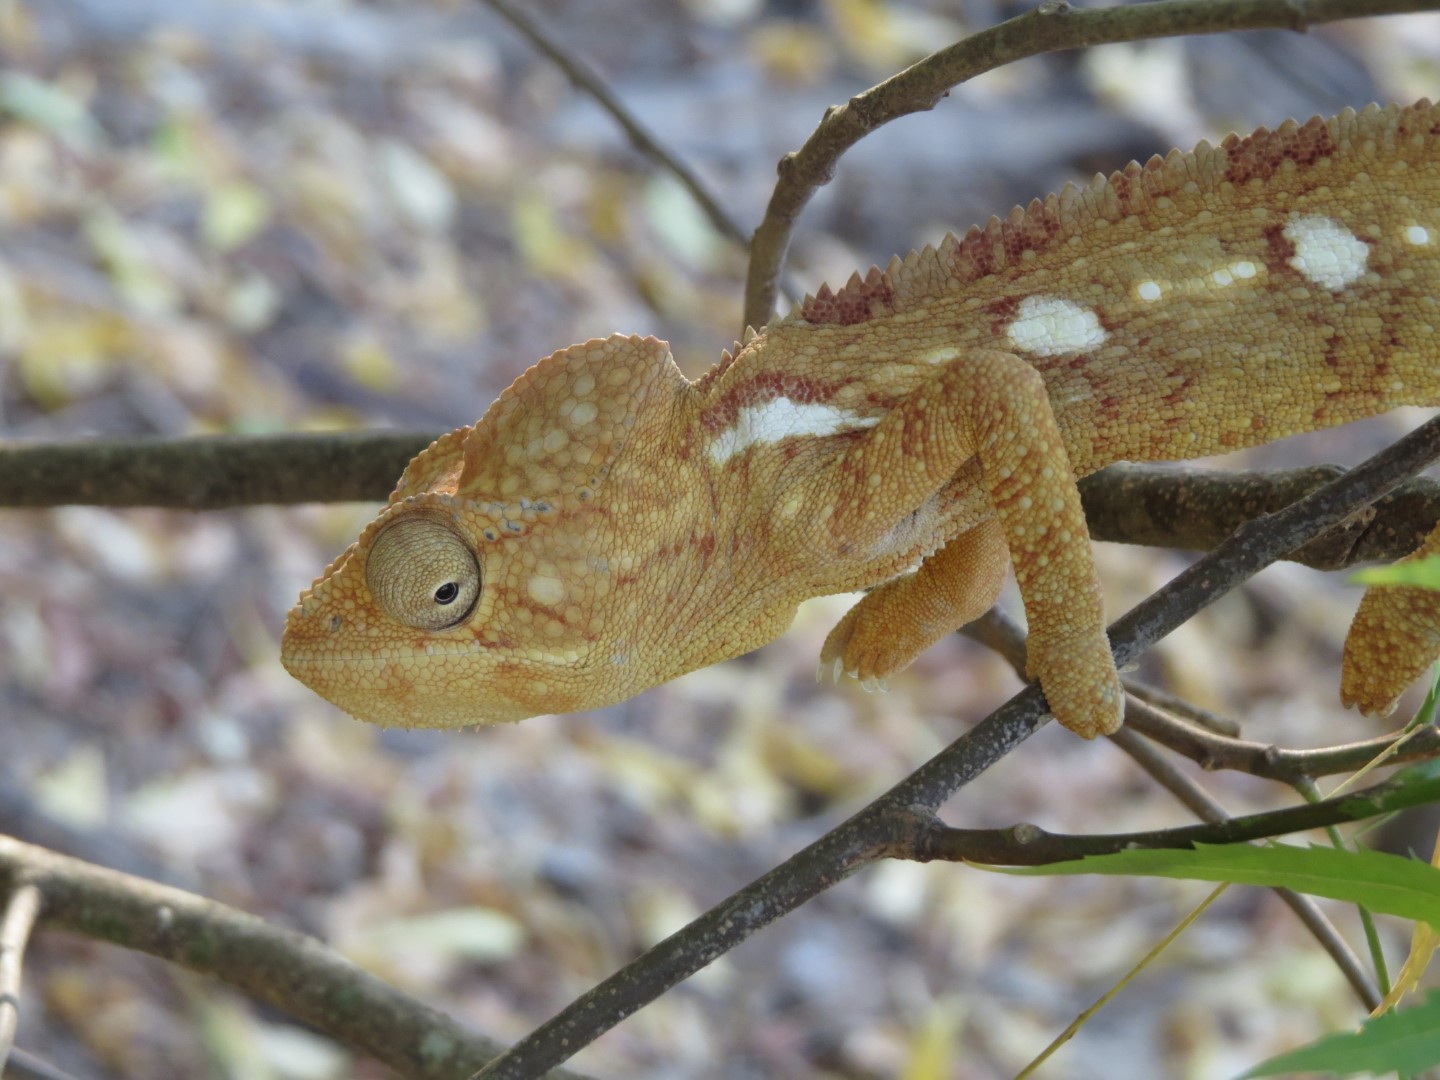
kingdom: Animalia
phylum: Chordata
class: Squamata
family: Chamaeleonidae
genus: Furcifer
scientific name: Furcifer oustaleti
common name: Oustalet's chameleon
